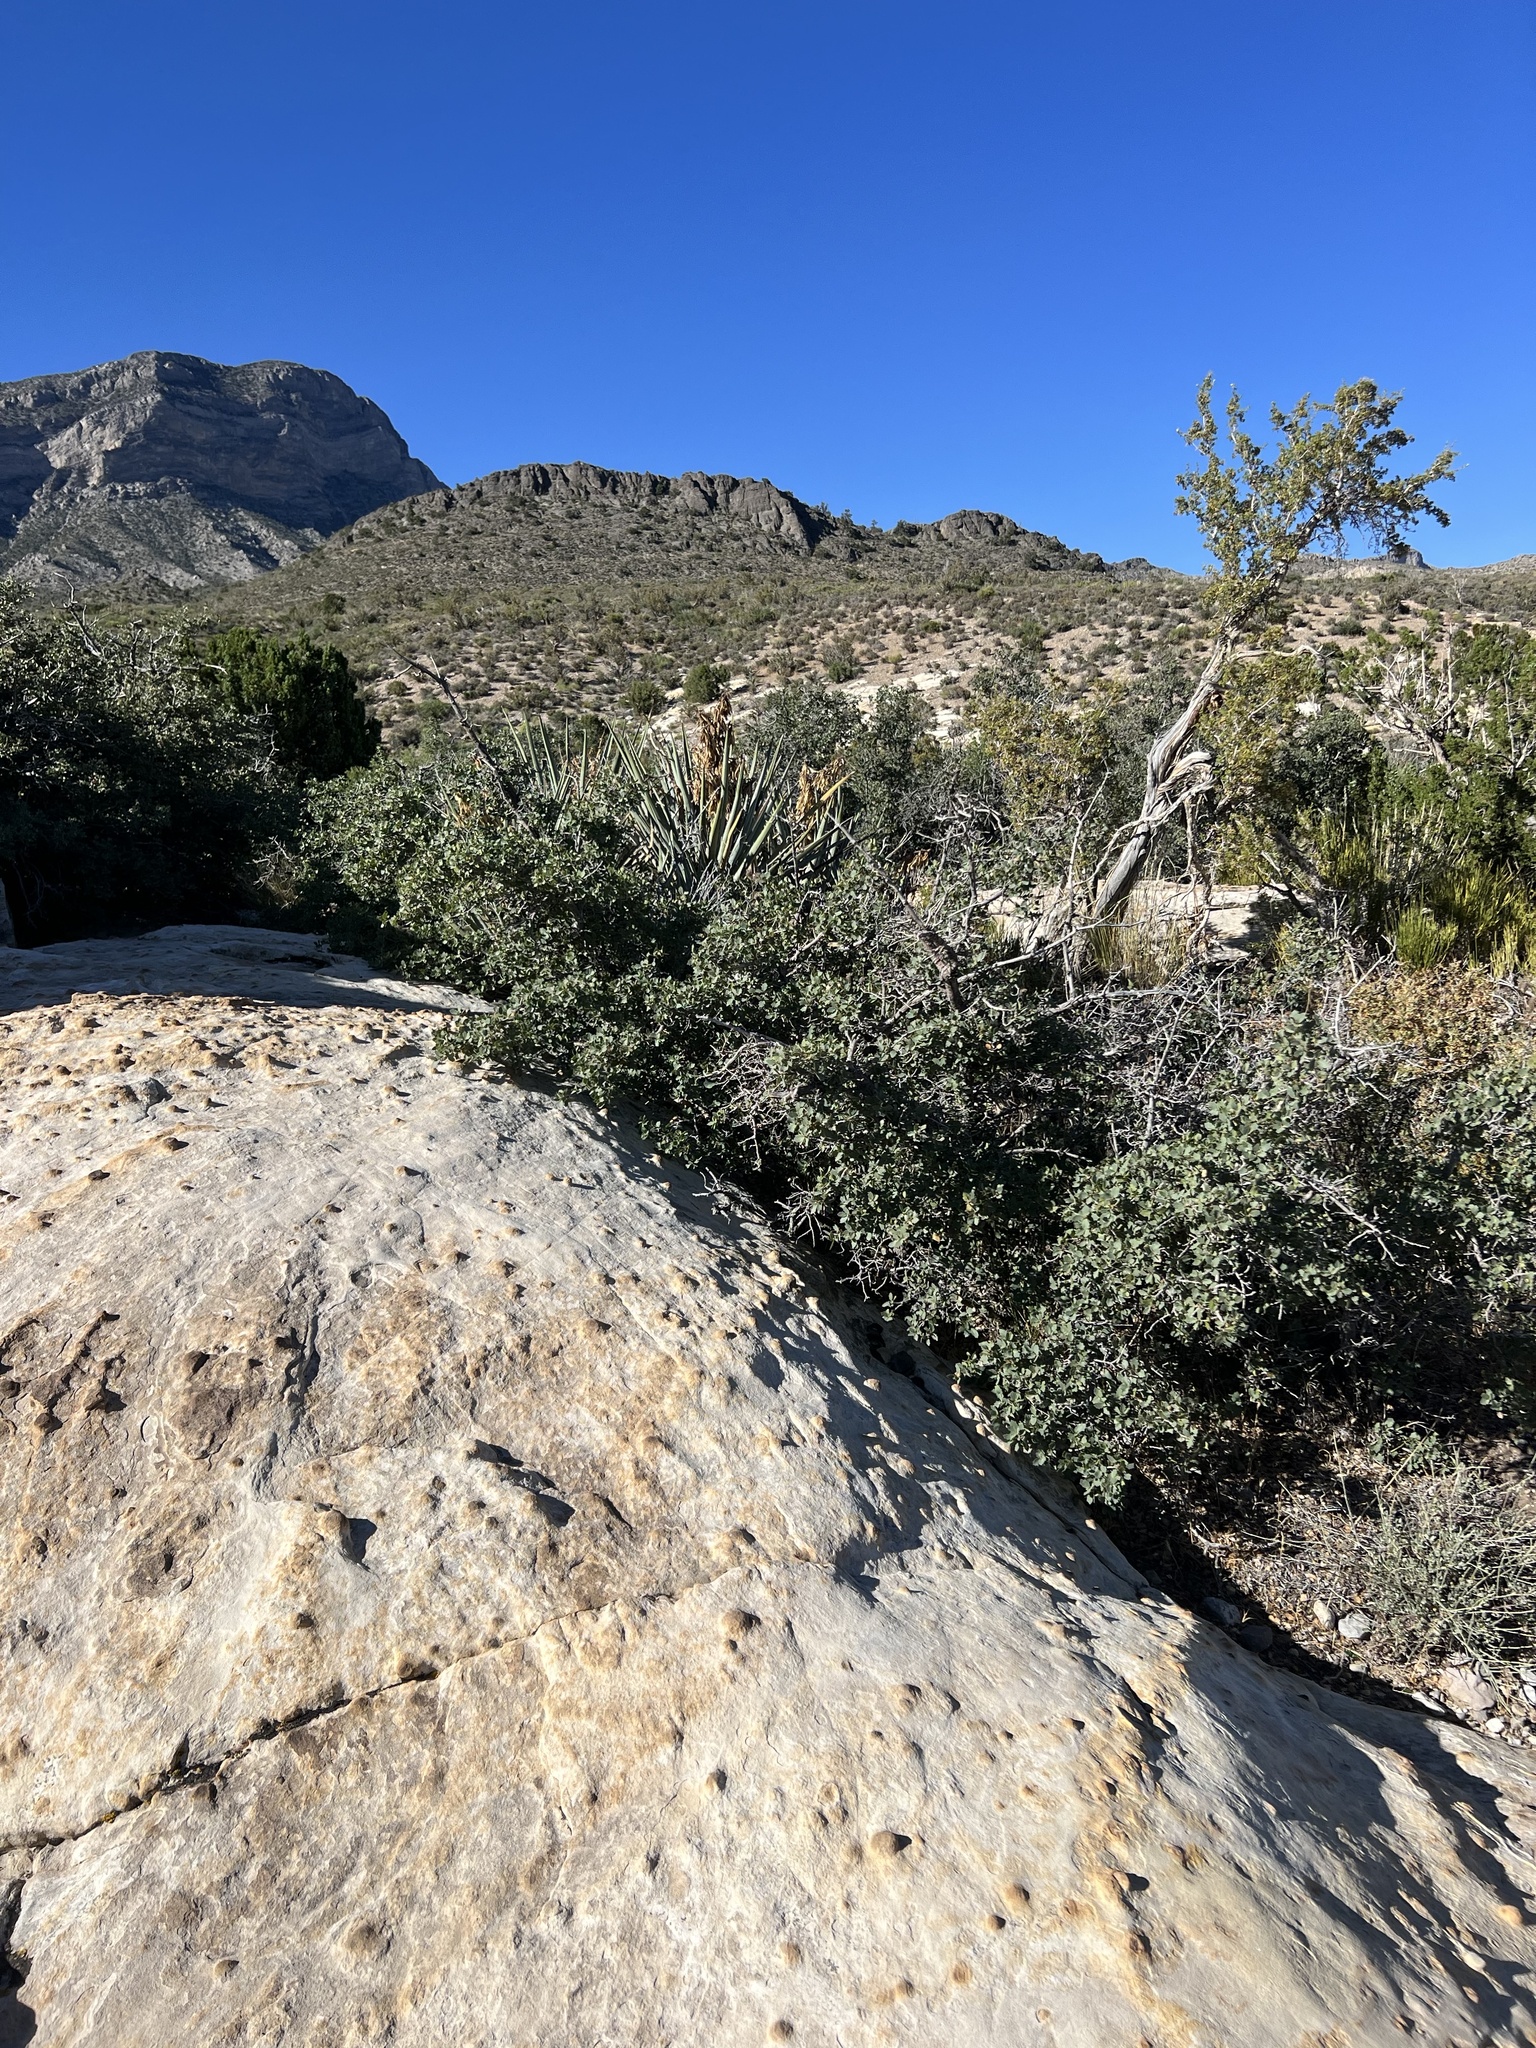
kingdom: Plantae
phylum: Tracheophyta
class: Magnoliopsida
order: Fagales
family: Fagaceae
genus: Quercus
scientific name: Quercus turbinella
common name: Sonoran scrub oak
